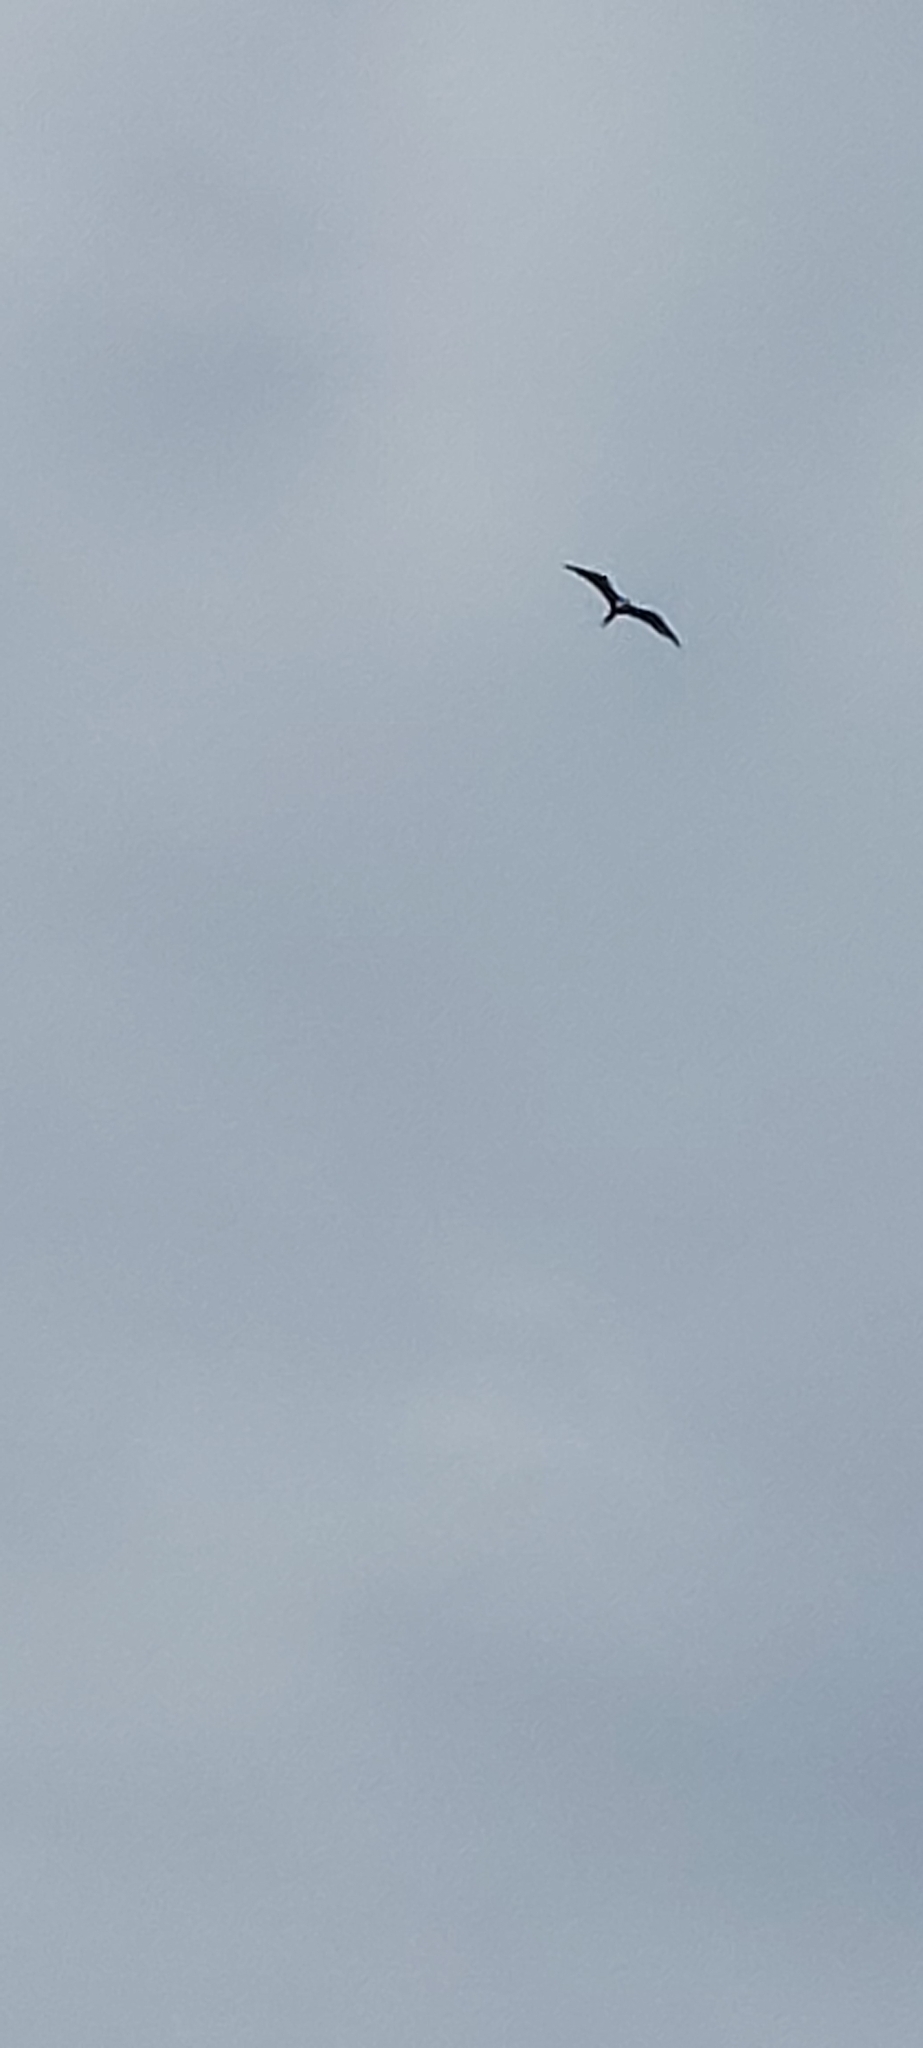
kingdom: Animalia
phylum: Chordata
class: Aves
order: Suliformes
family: Fregatidae
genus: Fregata
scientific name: Fregata magnificens
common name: Magnificent frigatebird
